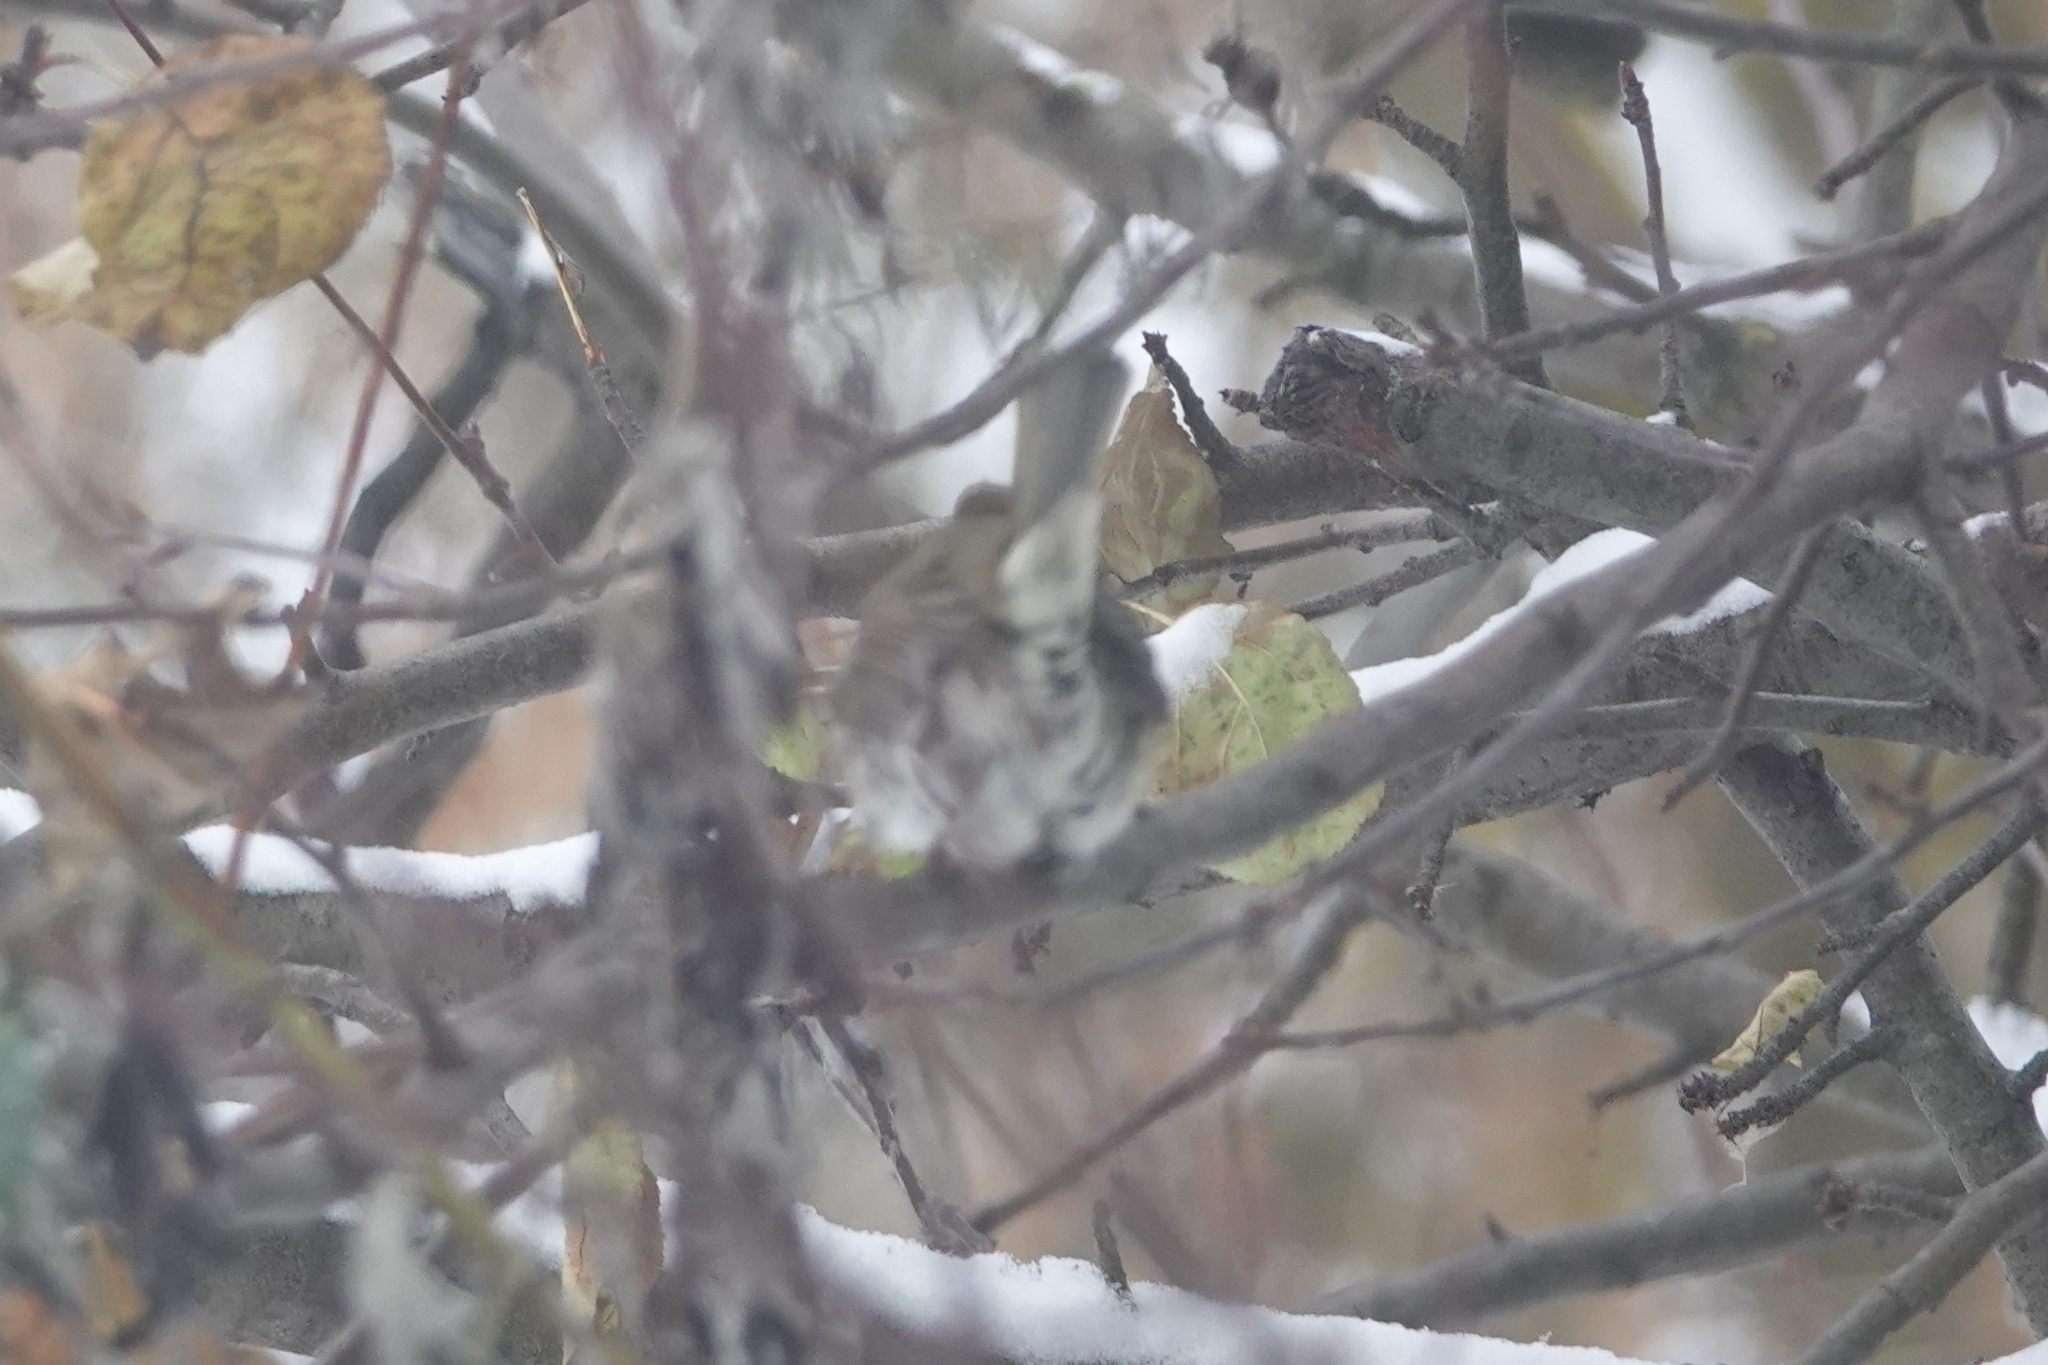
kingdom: Animalia
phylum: Chordata
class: Aves
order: Passeriformes
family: Muscicapidae
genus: Erithacus
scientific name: Erithacus rubecula
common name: European robin
